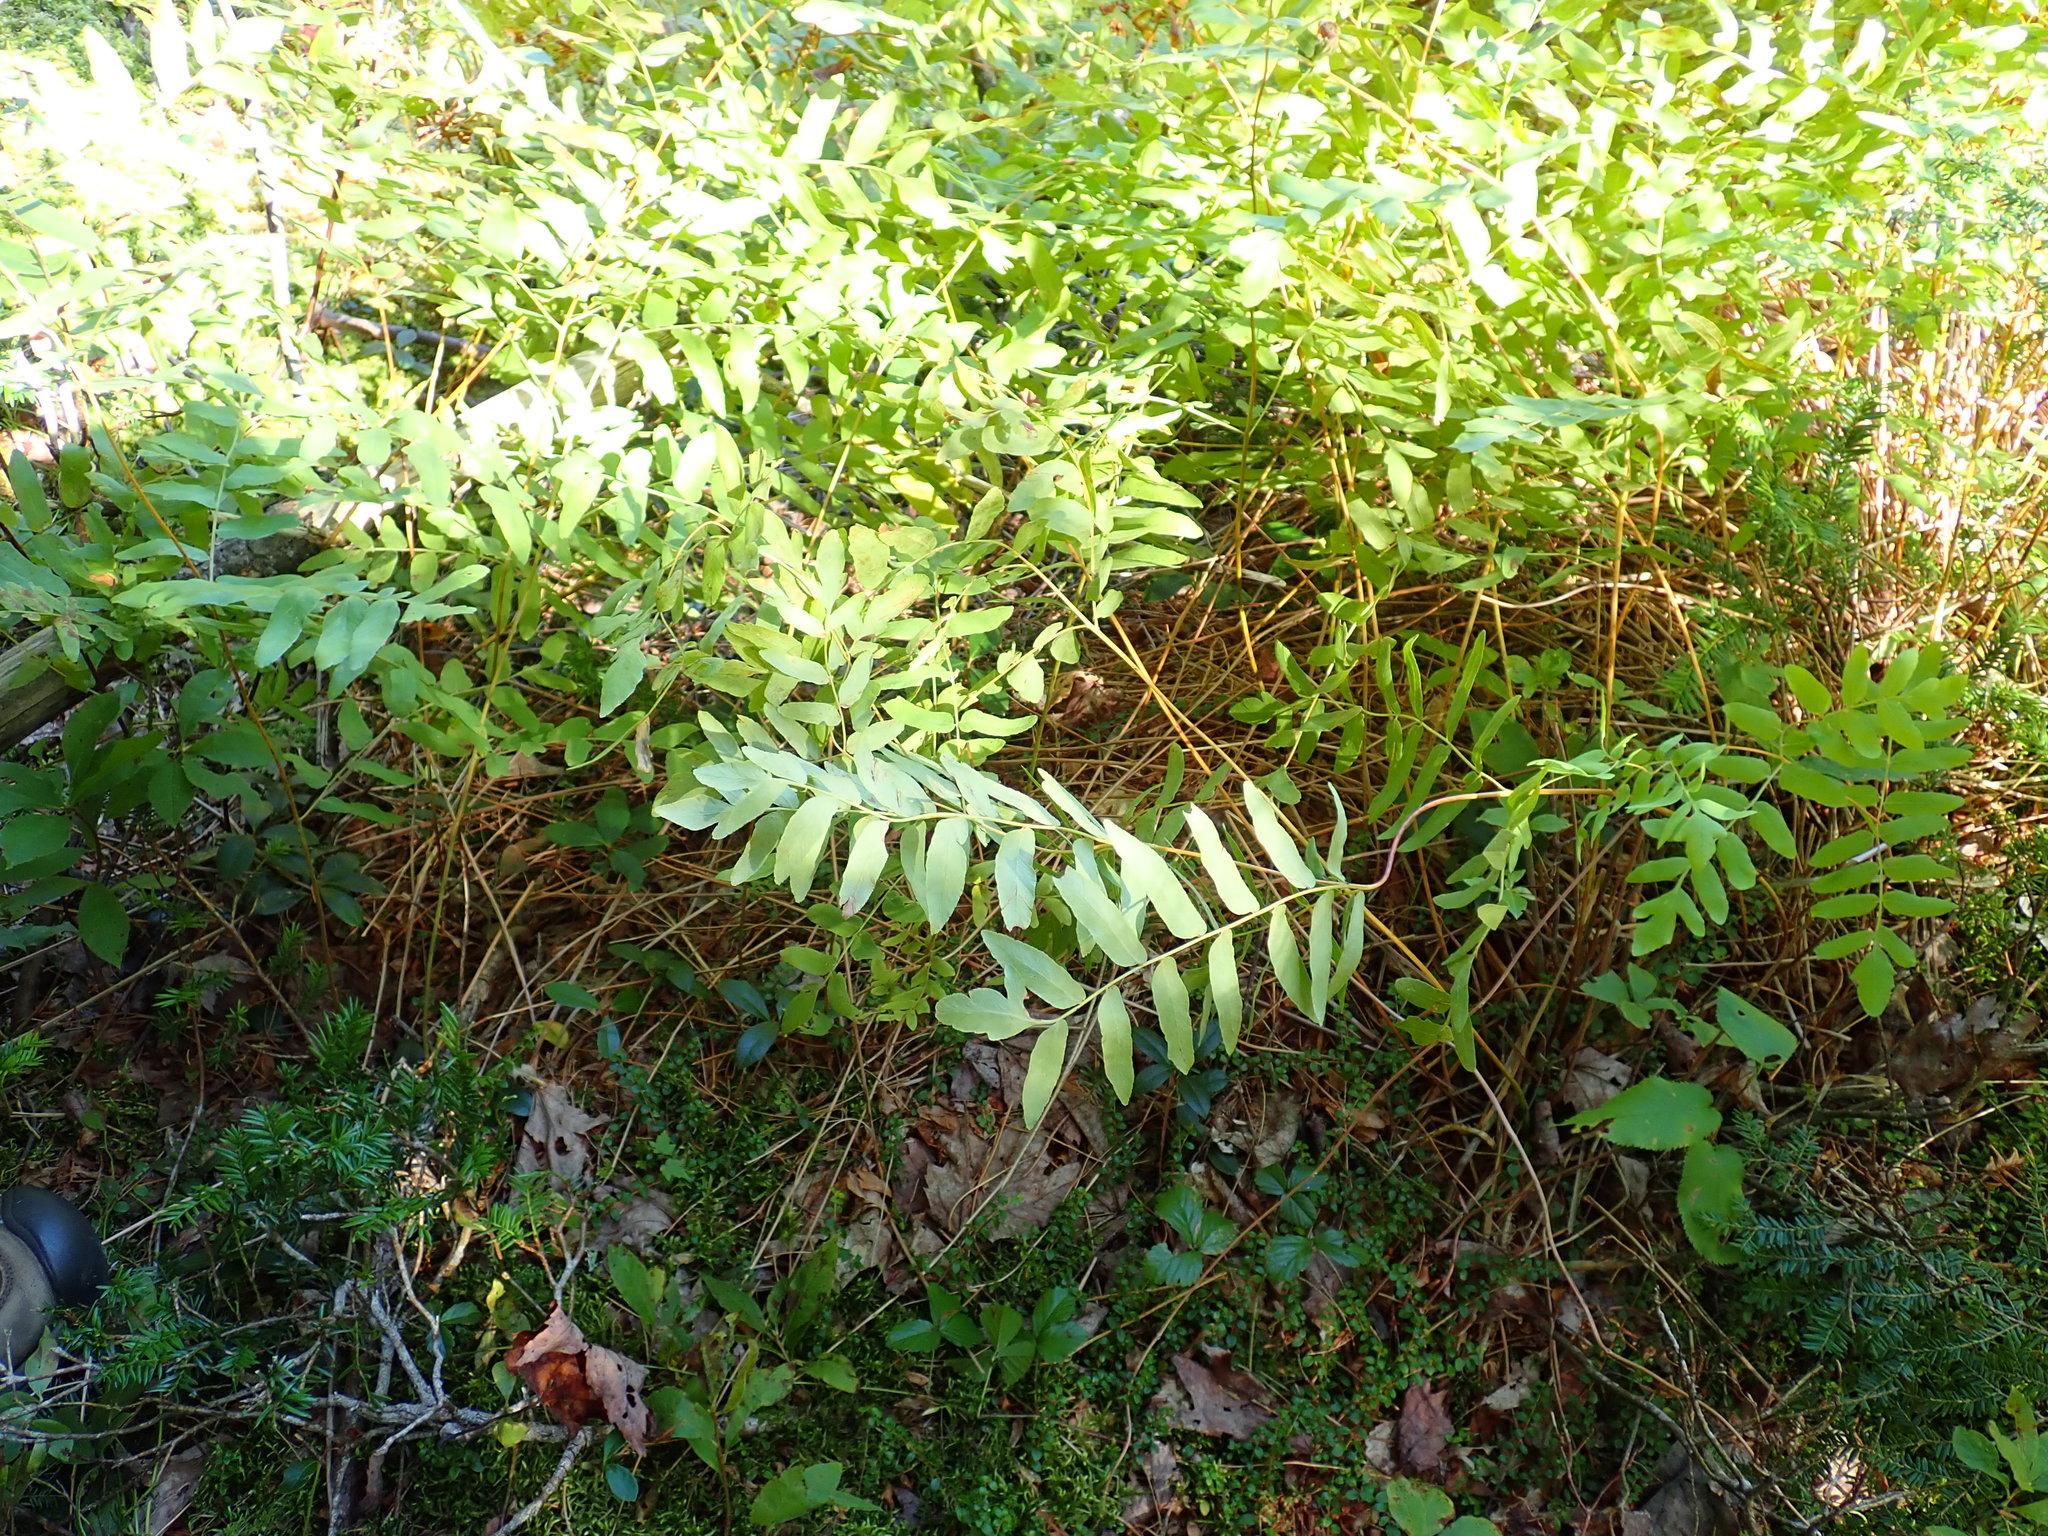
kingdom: Plantae
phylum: Tracheophyta
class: Polypodiopsida
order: Osmundales
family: Osmundaceae
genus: Osmunda
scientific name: Osmunda spectabilis
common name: American royal fern
